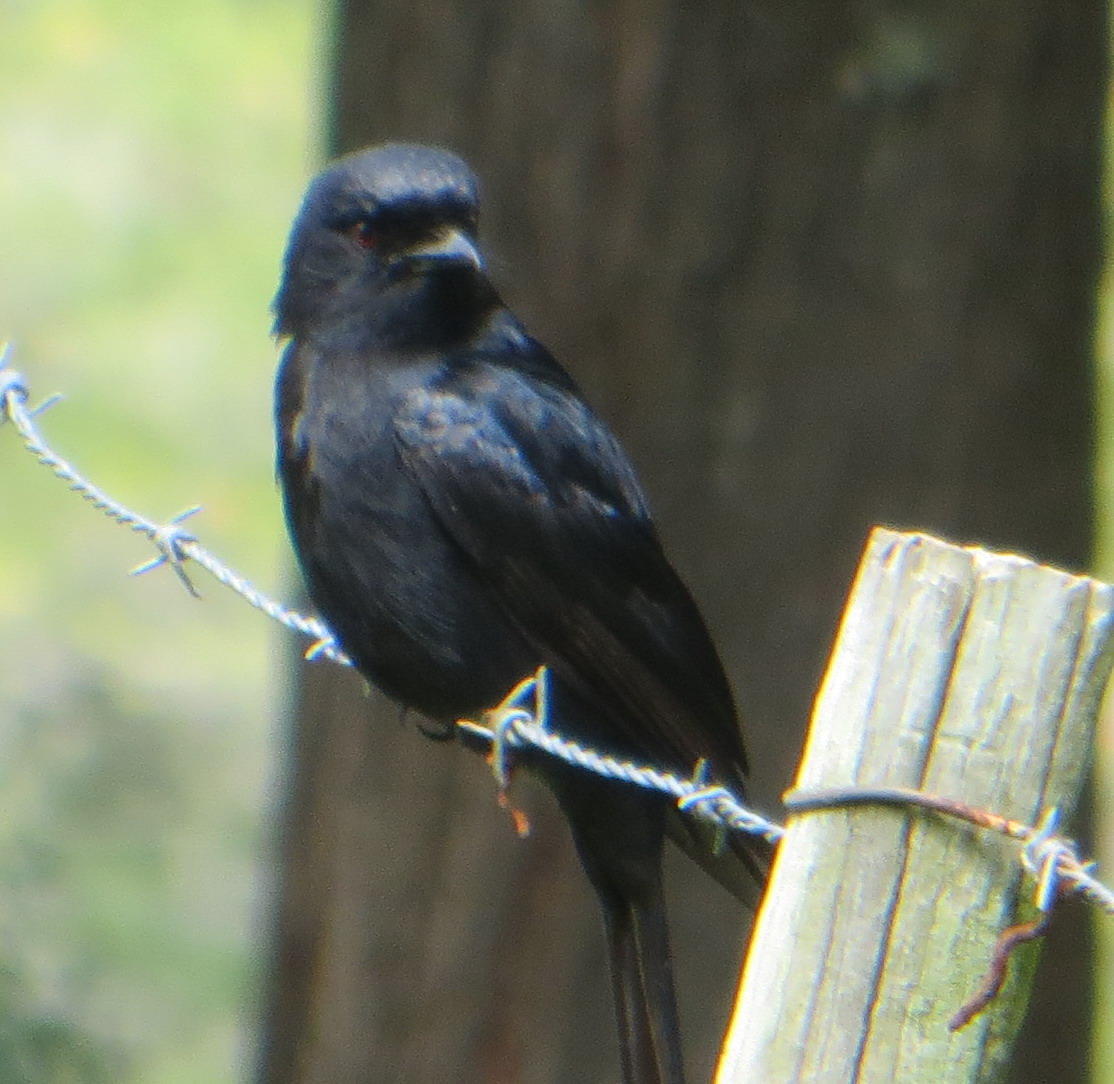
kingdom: Animalia
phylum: Chordata
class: Aves
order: Passeriformes
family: Dicruridae
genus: Dicrurus
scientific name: Dicrurus adsimilis
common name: Fork-tailed drongo
